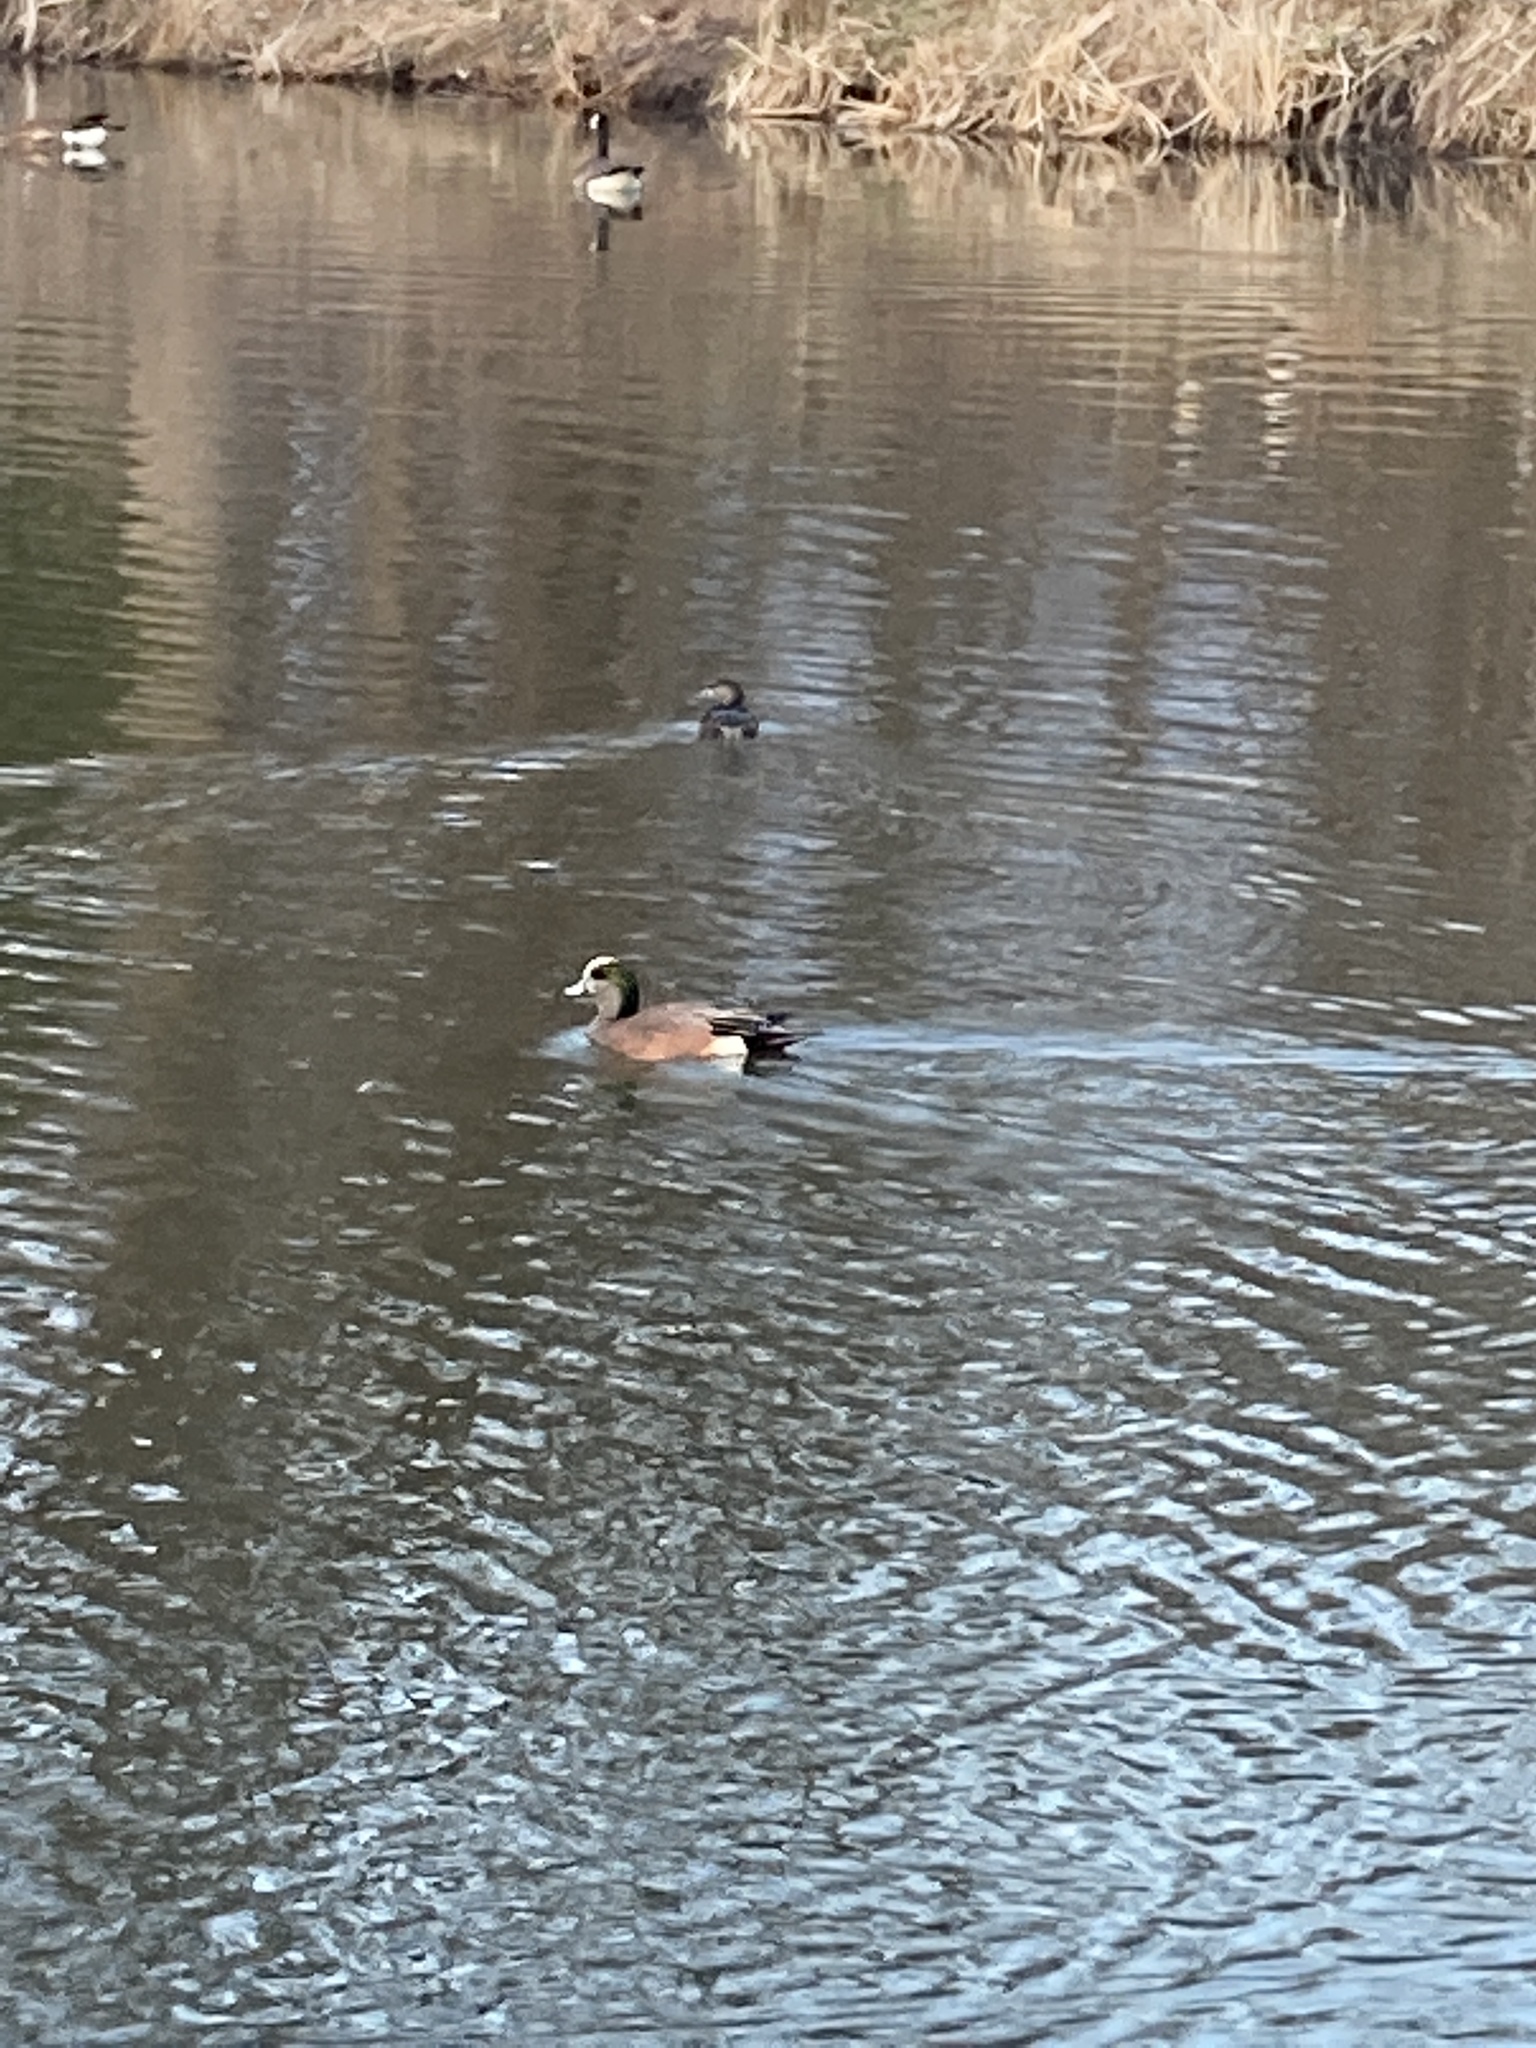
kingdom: Animalia
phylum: Chordata
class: Aves
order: Anseriformes
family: Anatidae
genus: Mareca
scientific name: Mareca americana
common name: American wigeon
